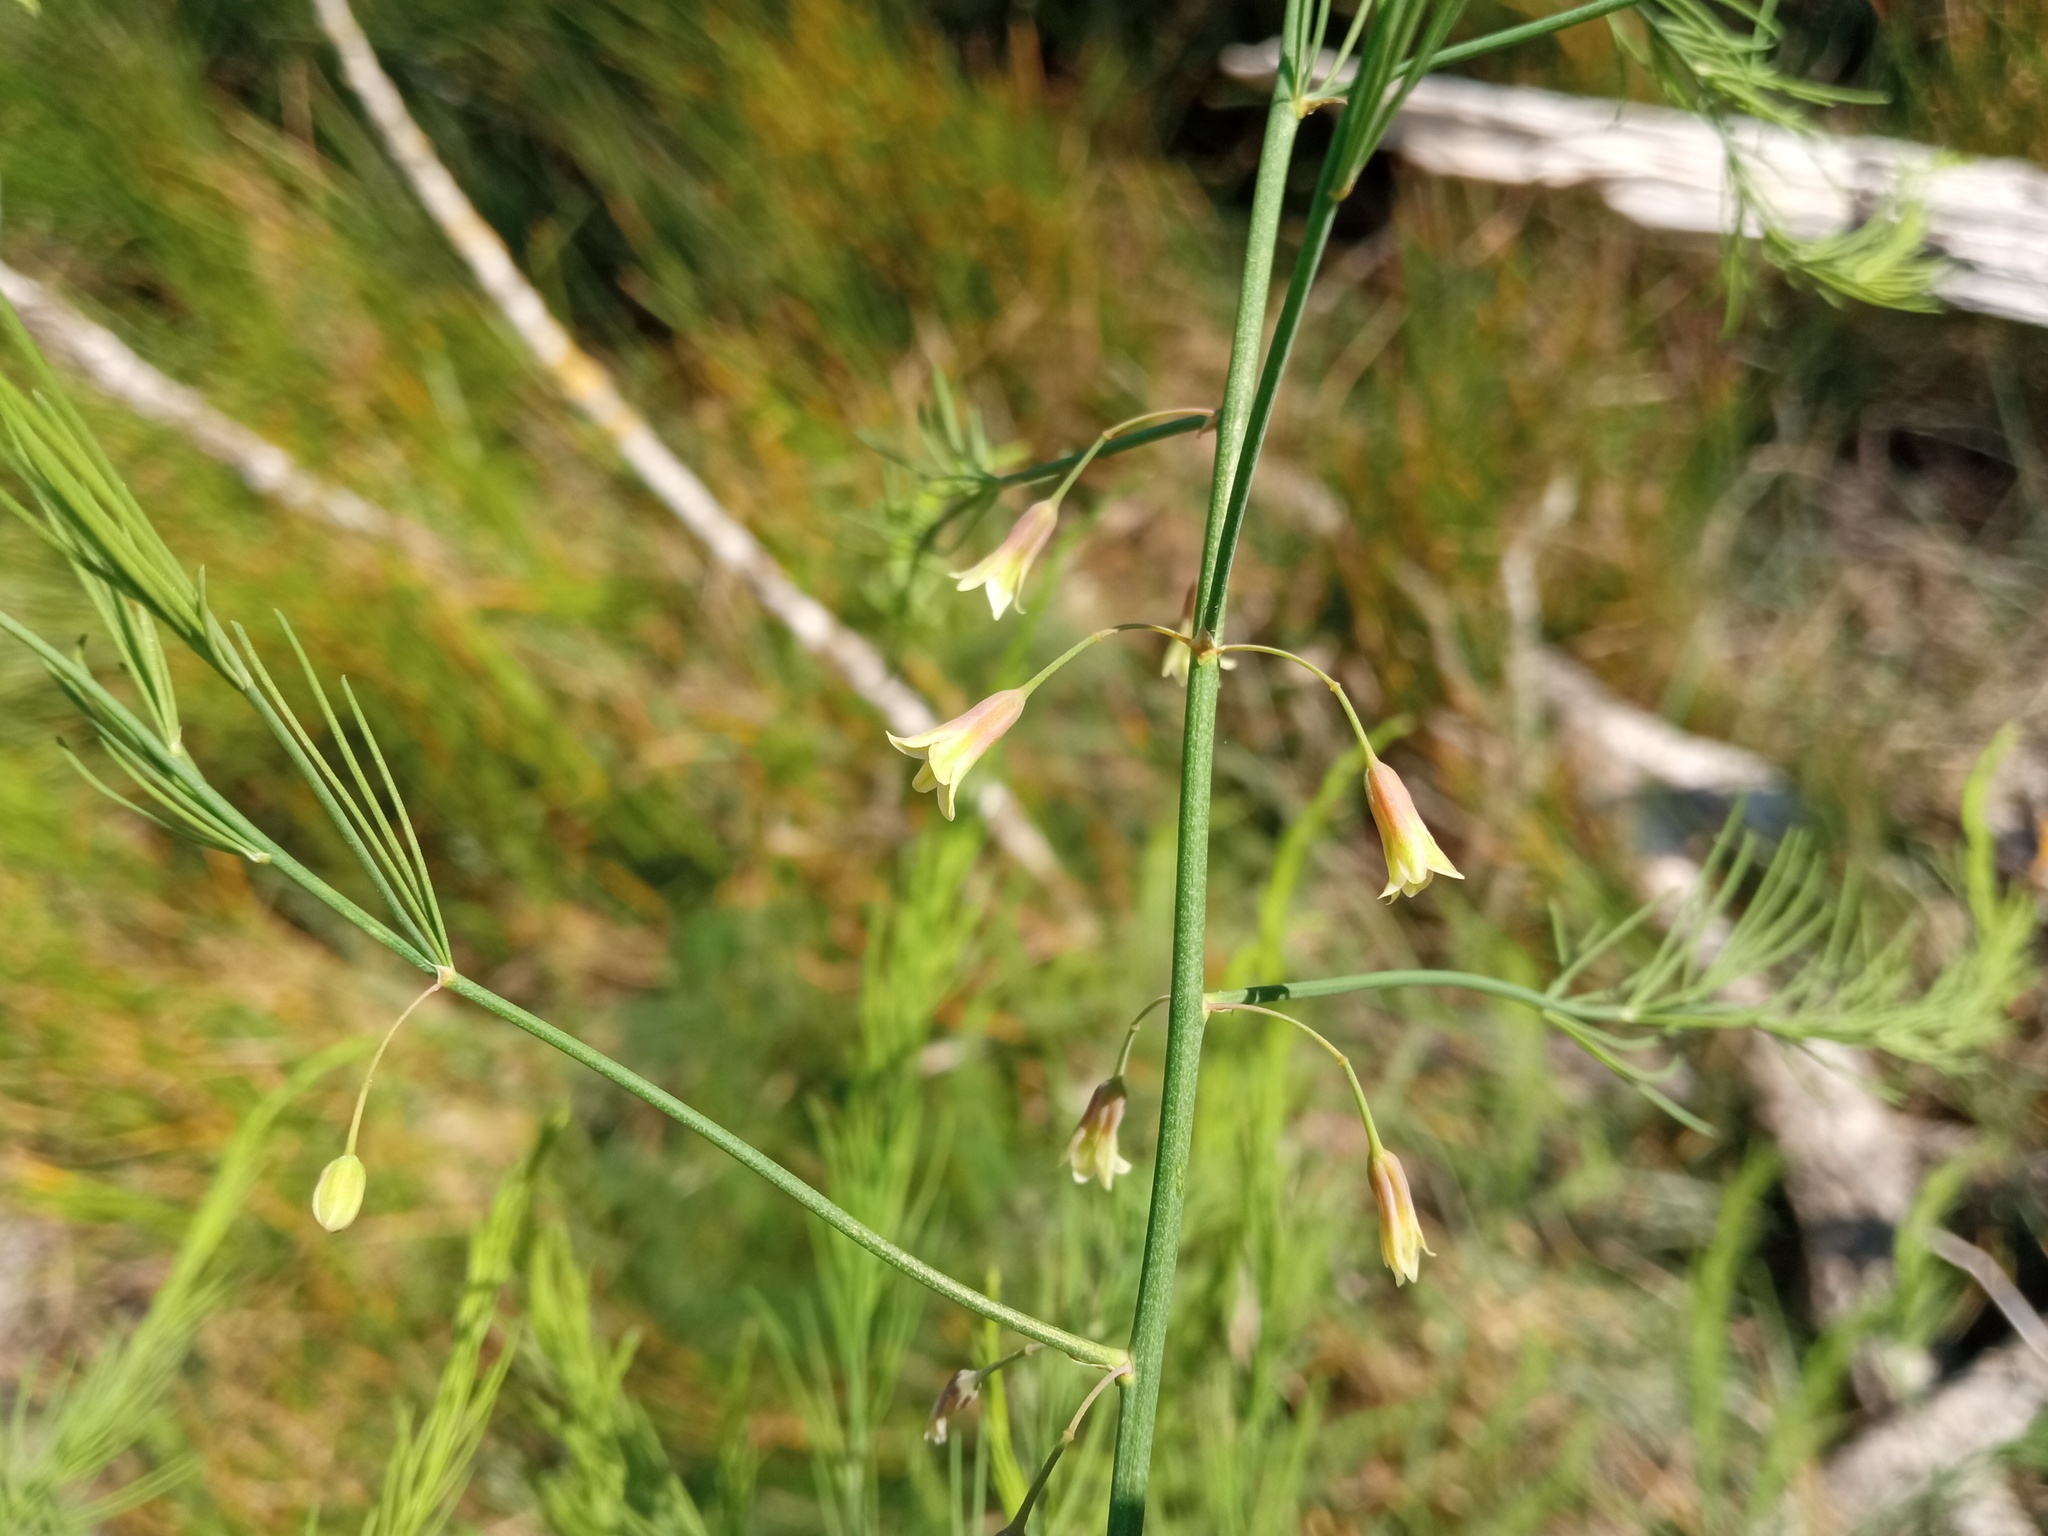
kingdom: Plantae
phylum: Tracheophyta
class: Liliopsida
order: Asparagales
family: Asparagaceae
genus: Asparagus
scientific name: Asparagus officinalis
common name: Garden asparagus
